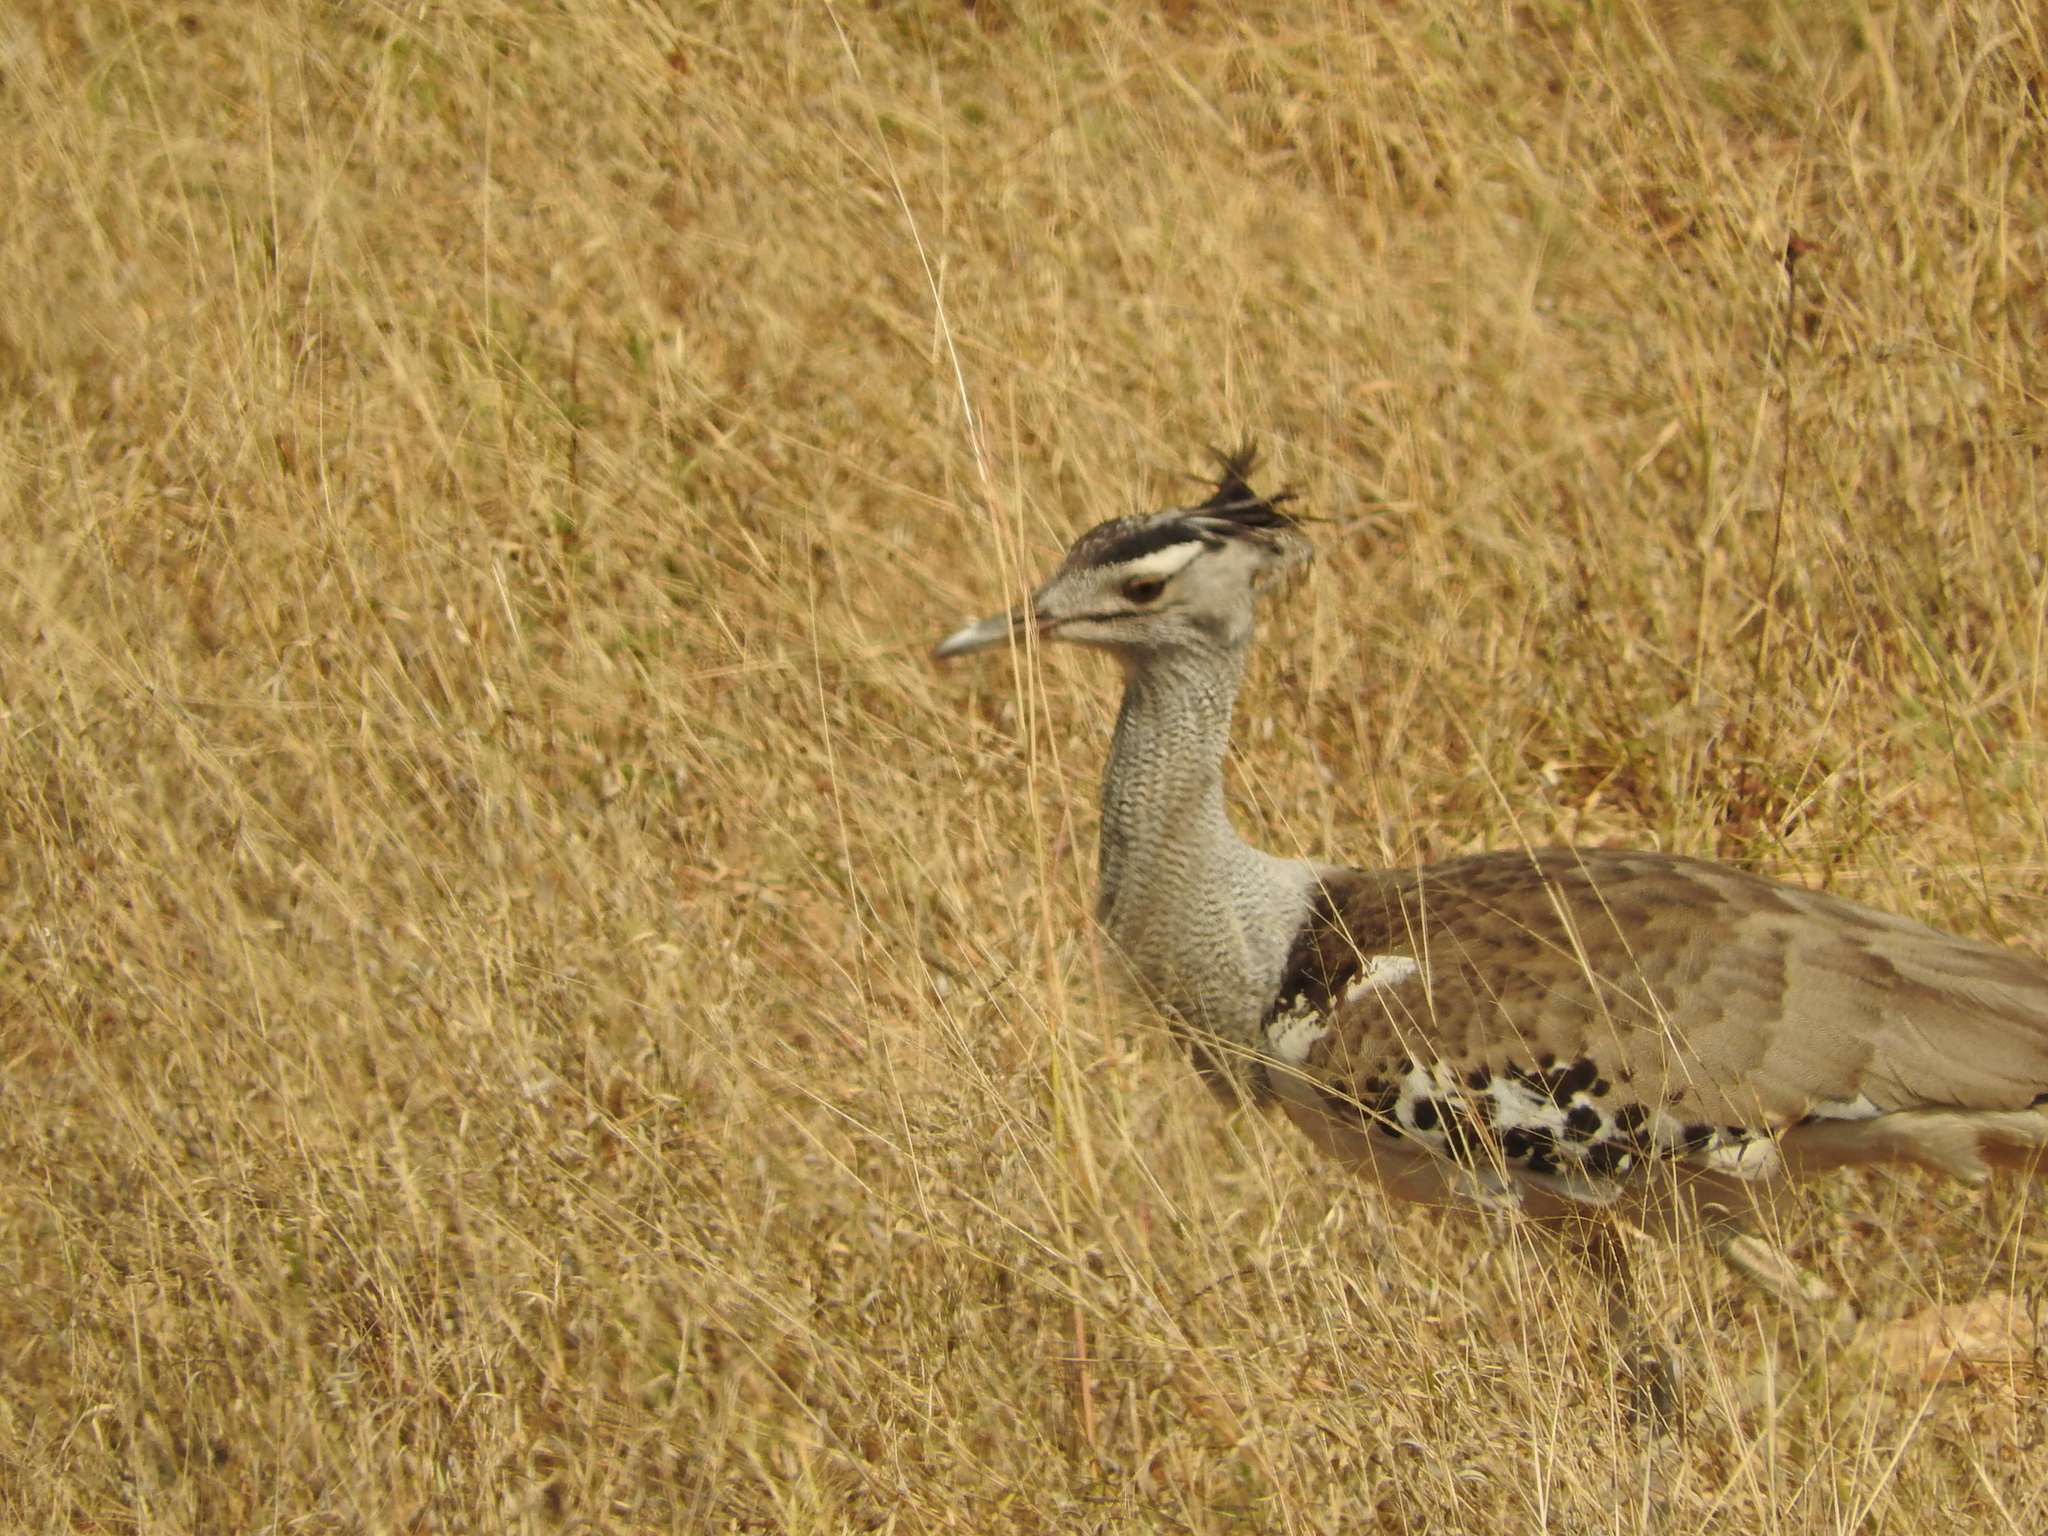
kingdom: Animalia
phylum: Chordata
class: Aves
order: Otidiformes
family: Otididae
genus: Ardeotis
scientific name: Ardeotis kori
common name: Kori bustard
